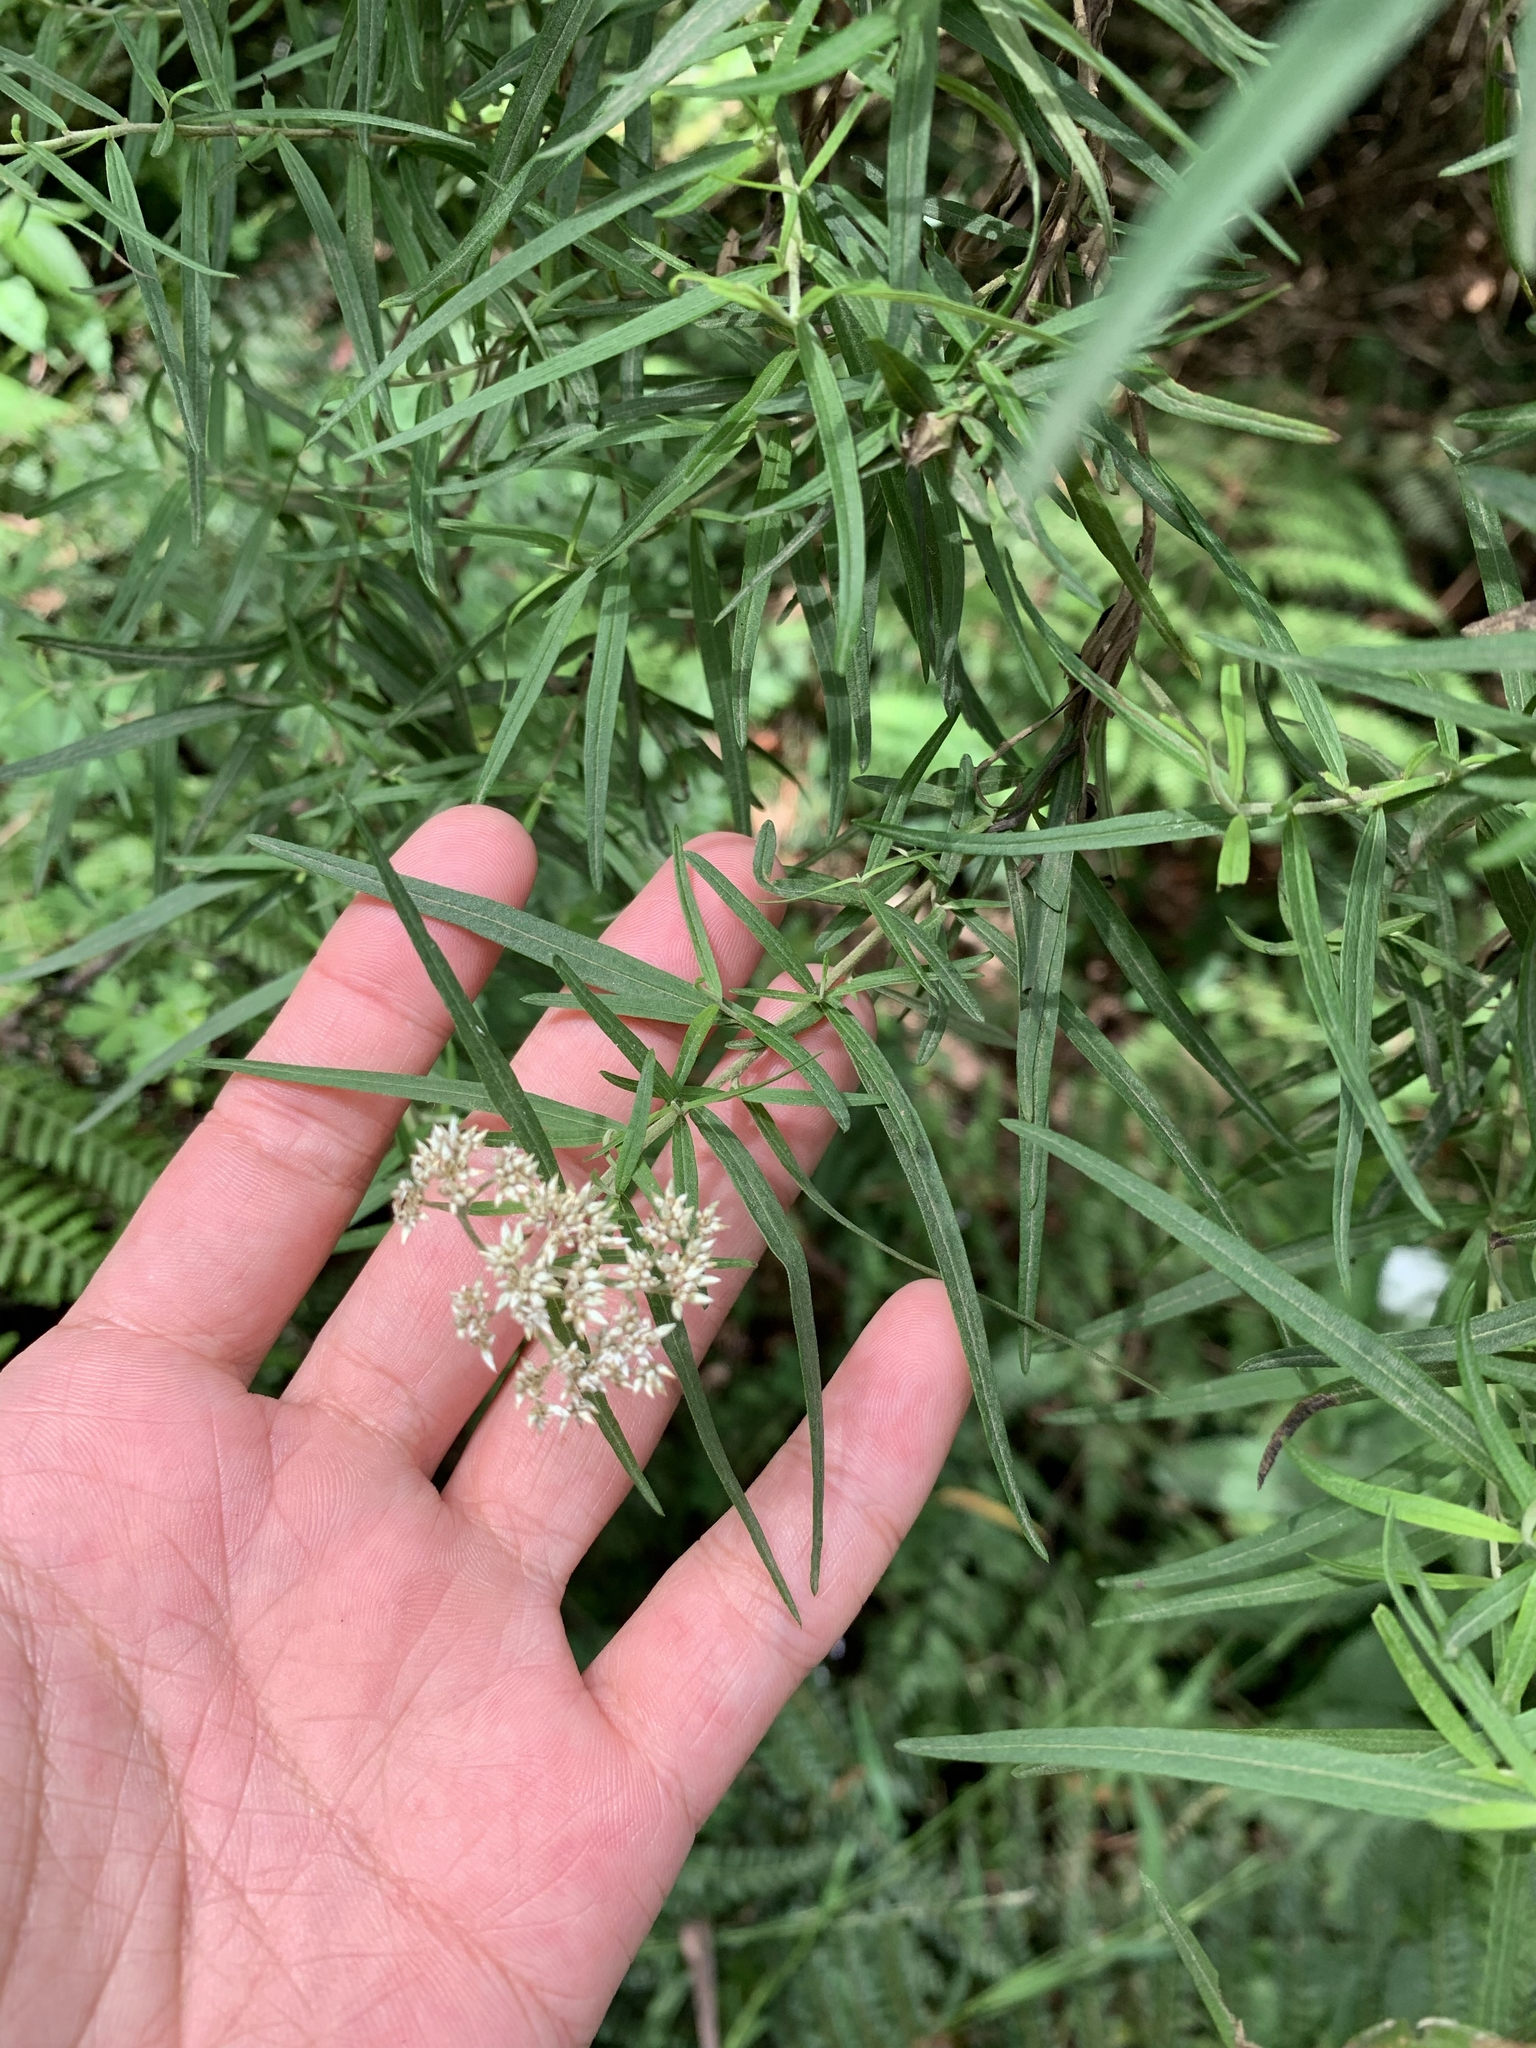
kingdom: Plantae
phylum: Tracheophyta
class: Magnoliopsida
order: Asterales
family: Asteraceae
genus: Ozothamnus
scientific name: Ozothamnus ferrugineus
